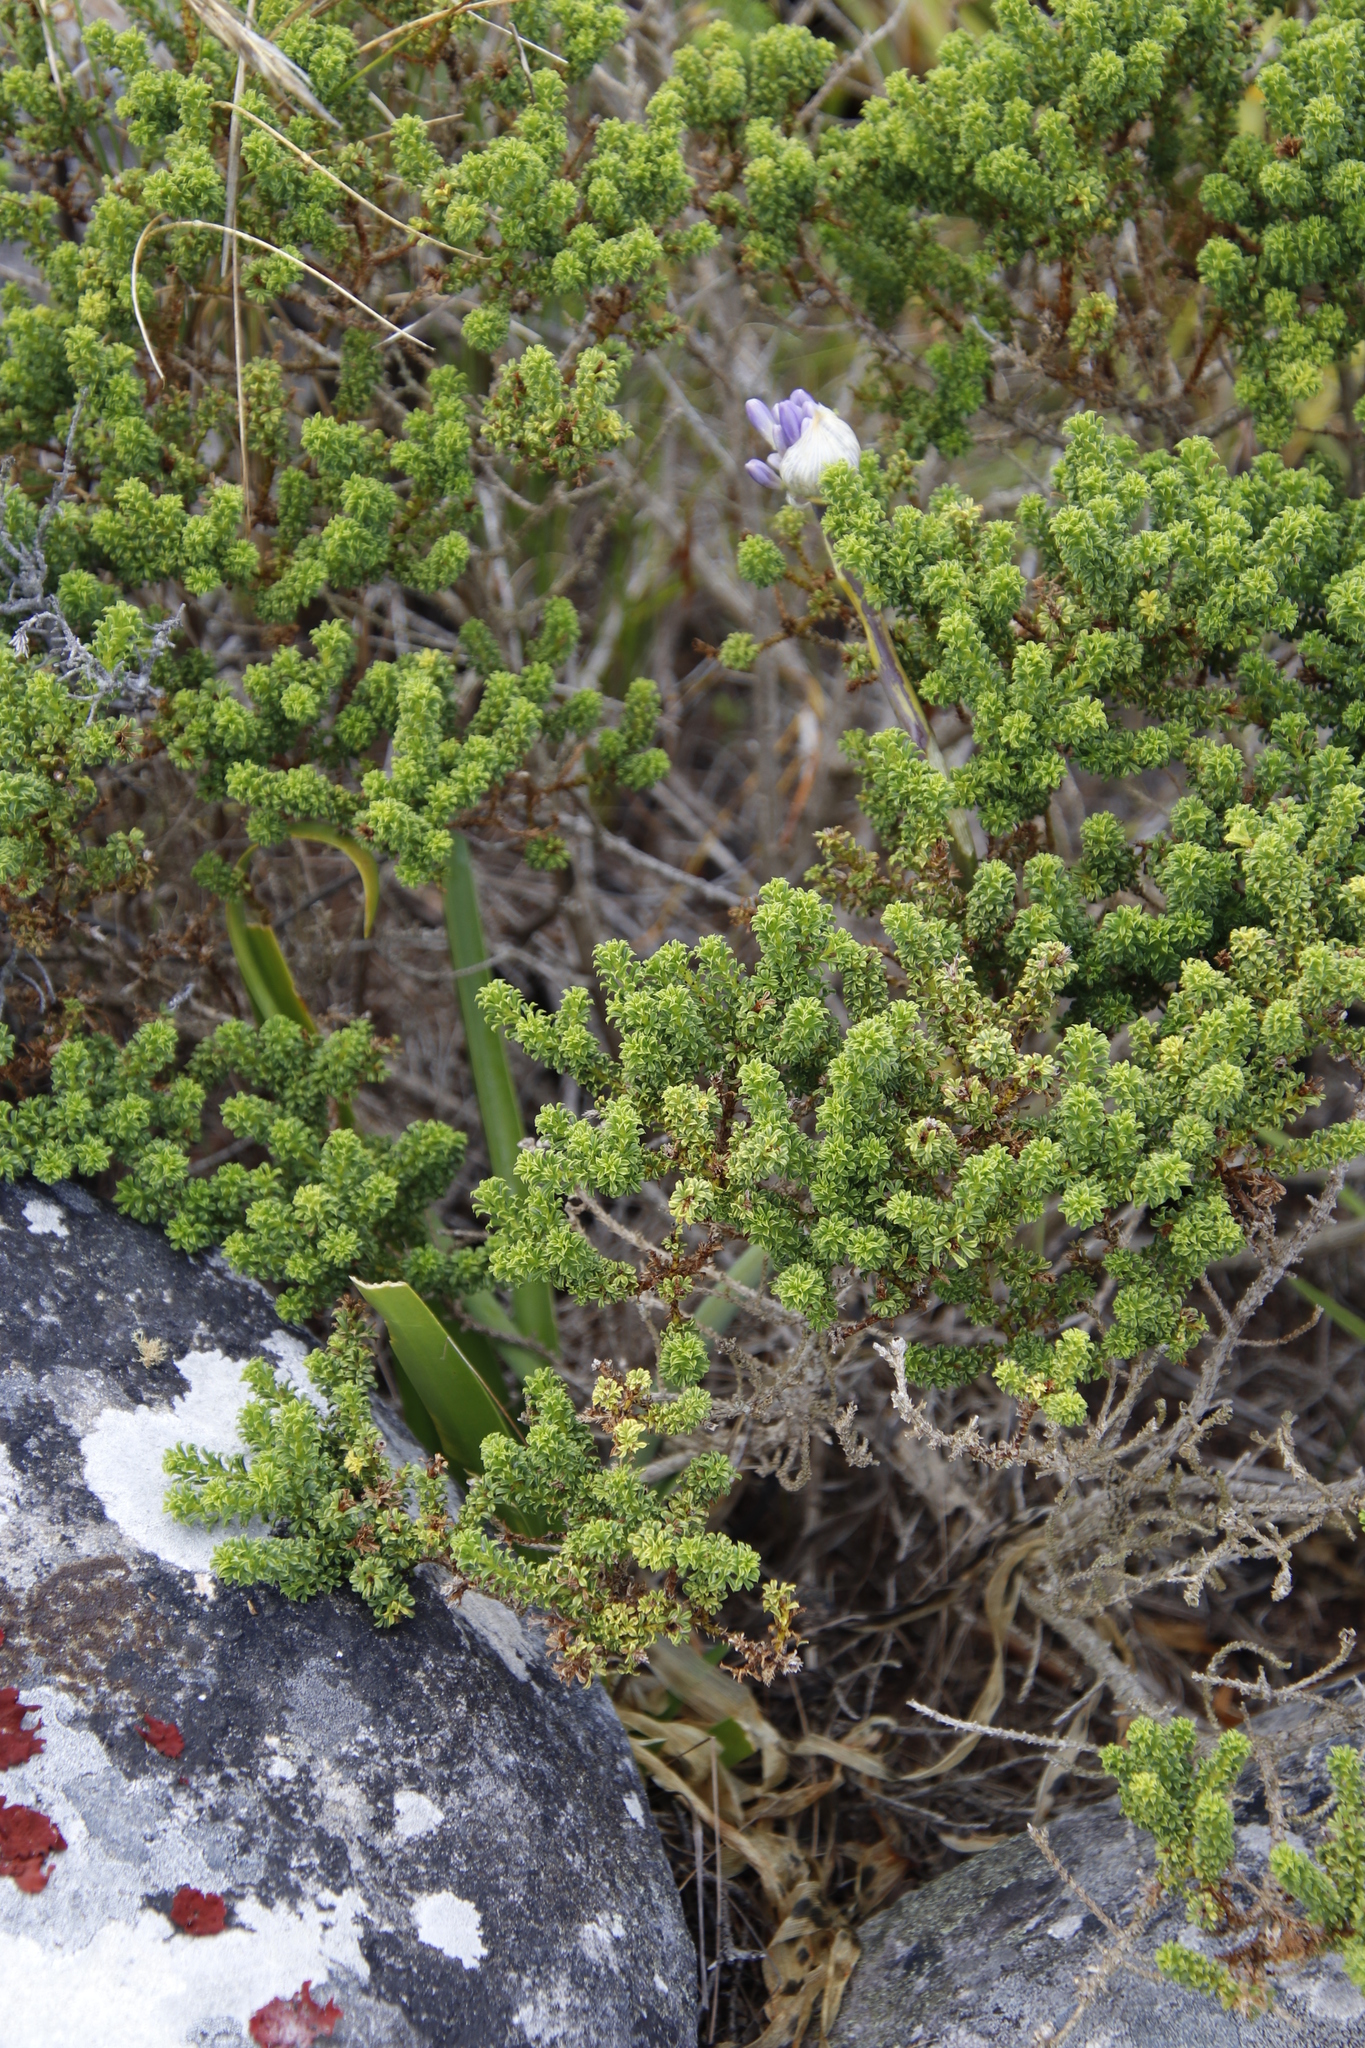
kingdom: Plantae
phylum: Tracheophyta
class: Liliopsida
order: Asparagales
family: Amaryllidaceae
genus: Agapanthus
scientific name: Agapanthus africanus
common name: Lily-of-the-nile
